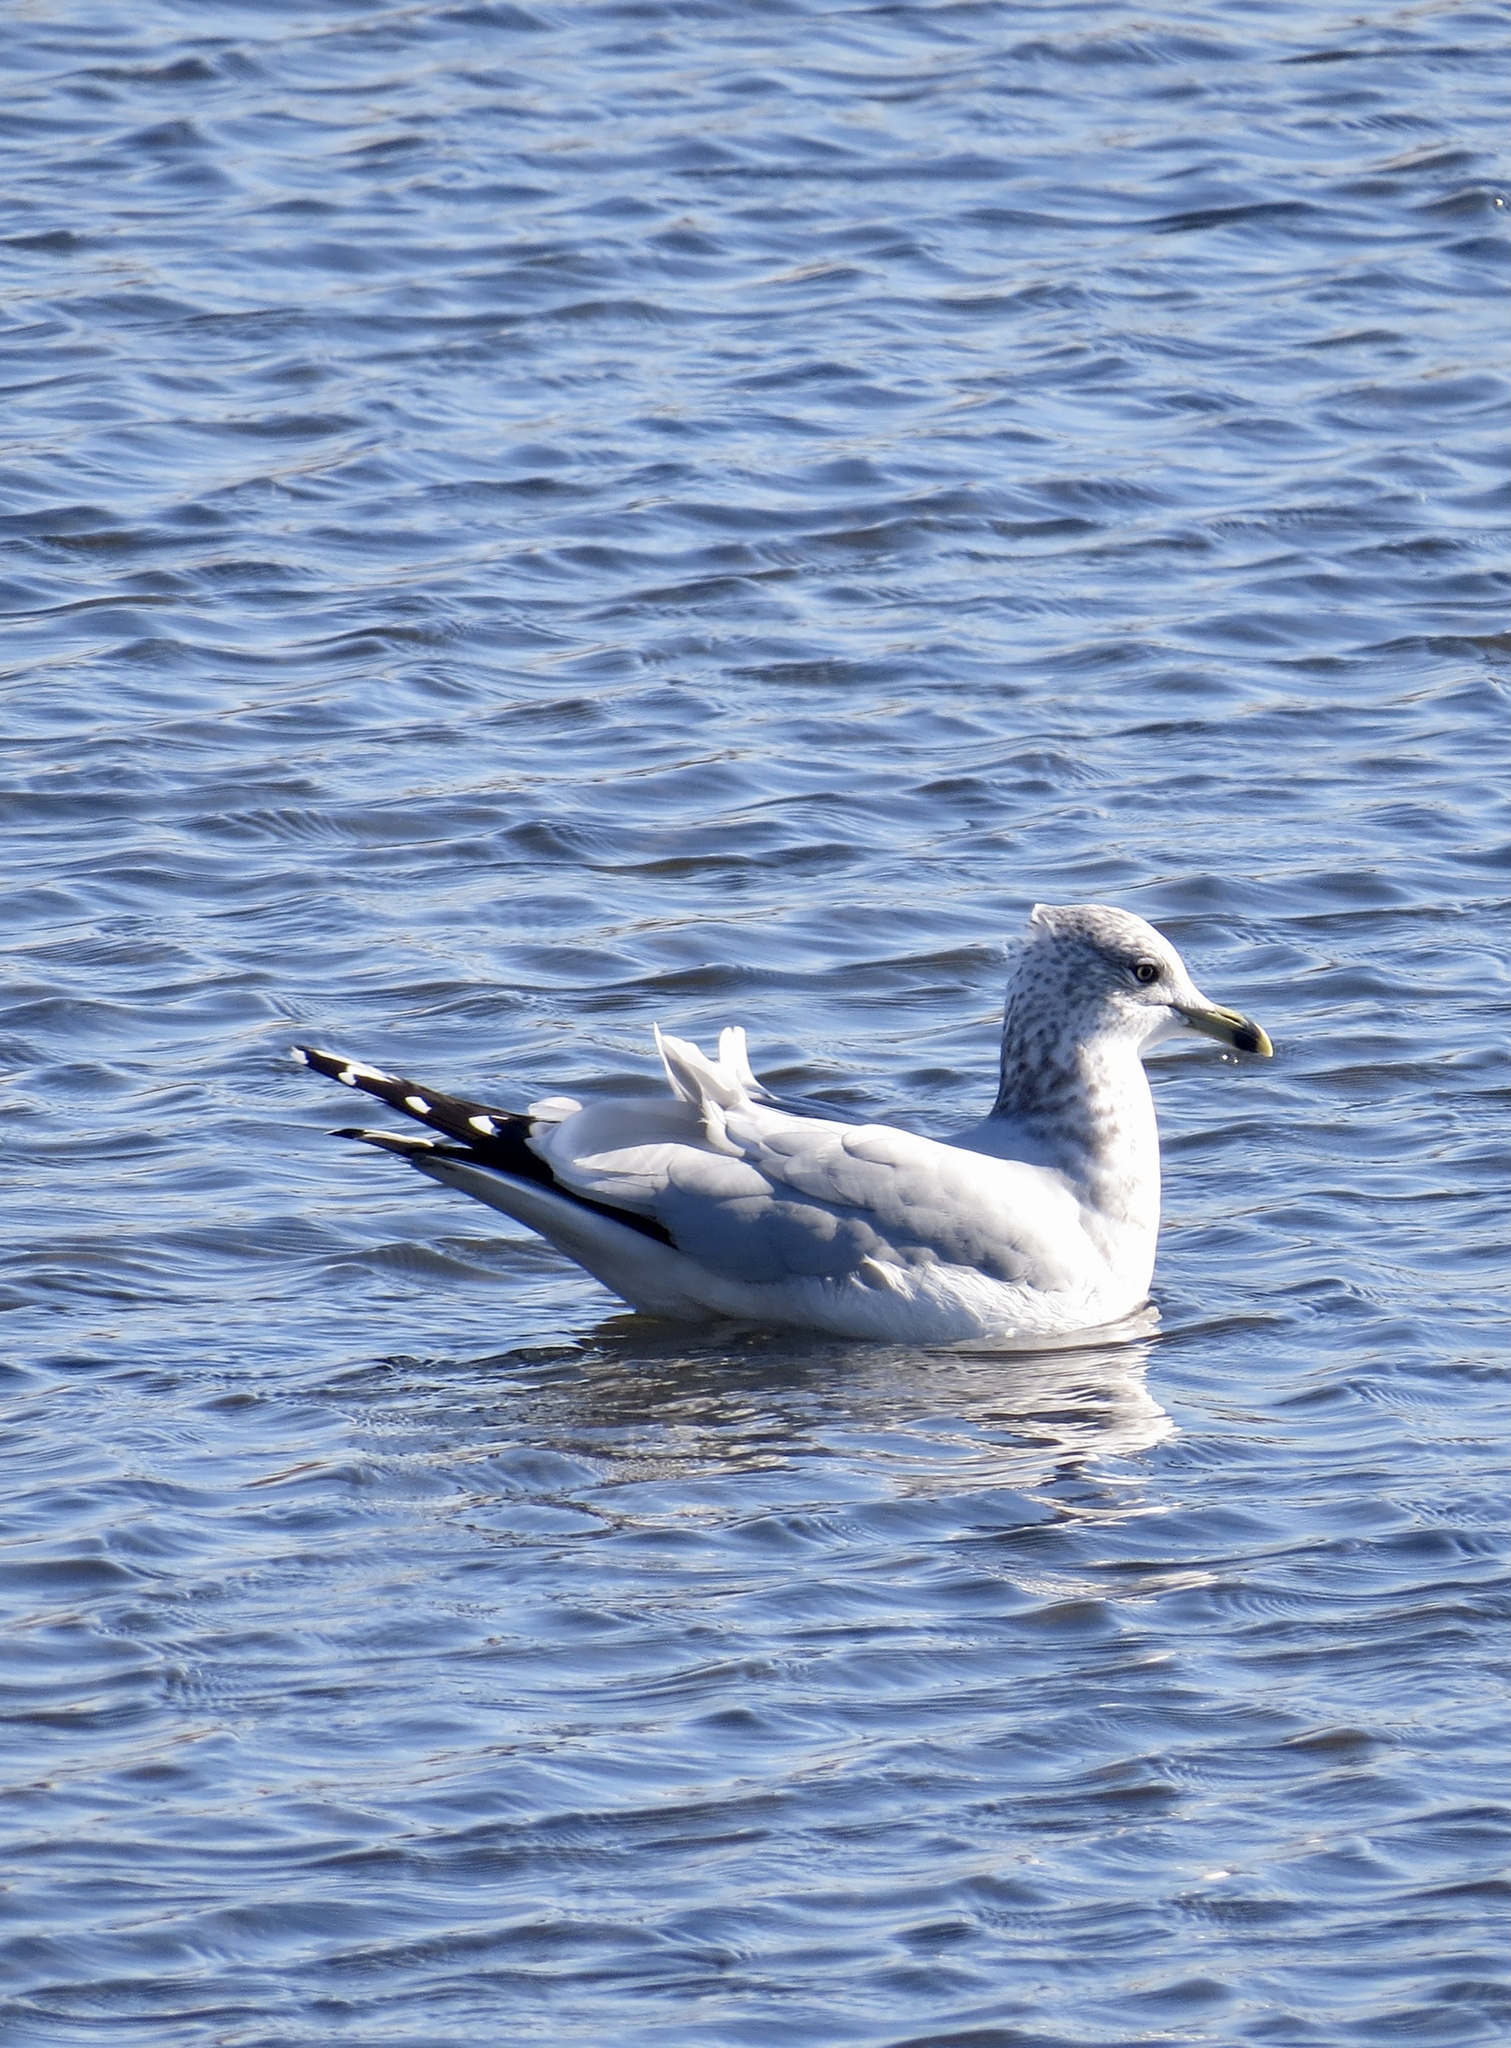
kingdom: Animalia
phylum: Chordata
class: Aves
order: Charadriiformes
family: Laridae
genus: Larus
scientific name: Larus delawarensis
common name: Ring-billed gull
